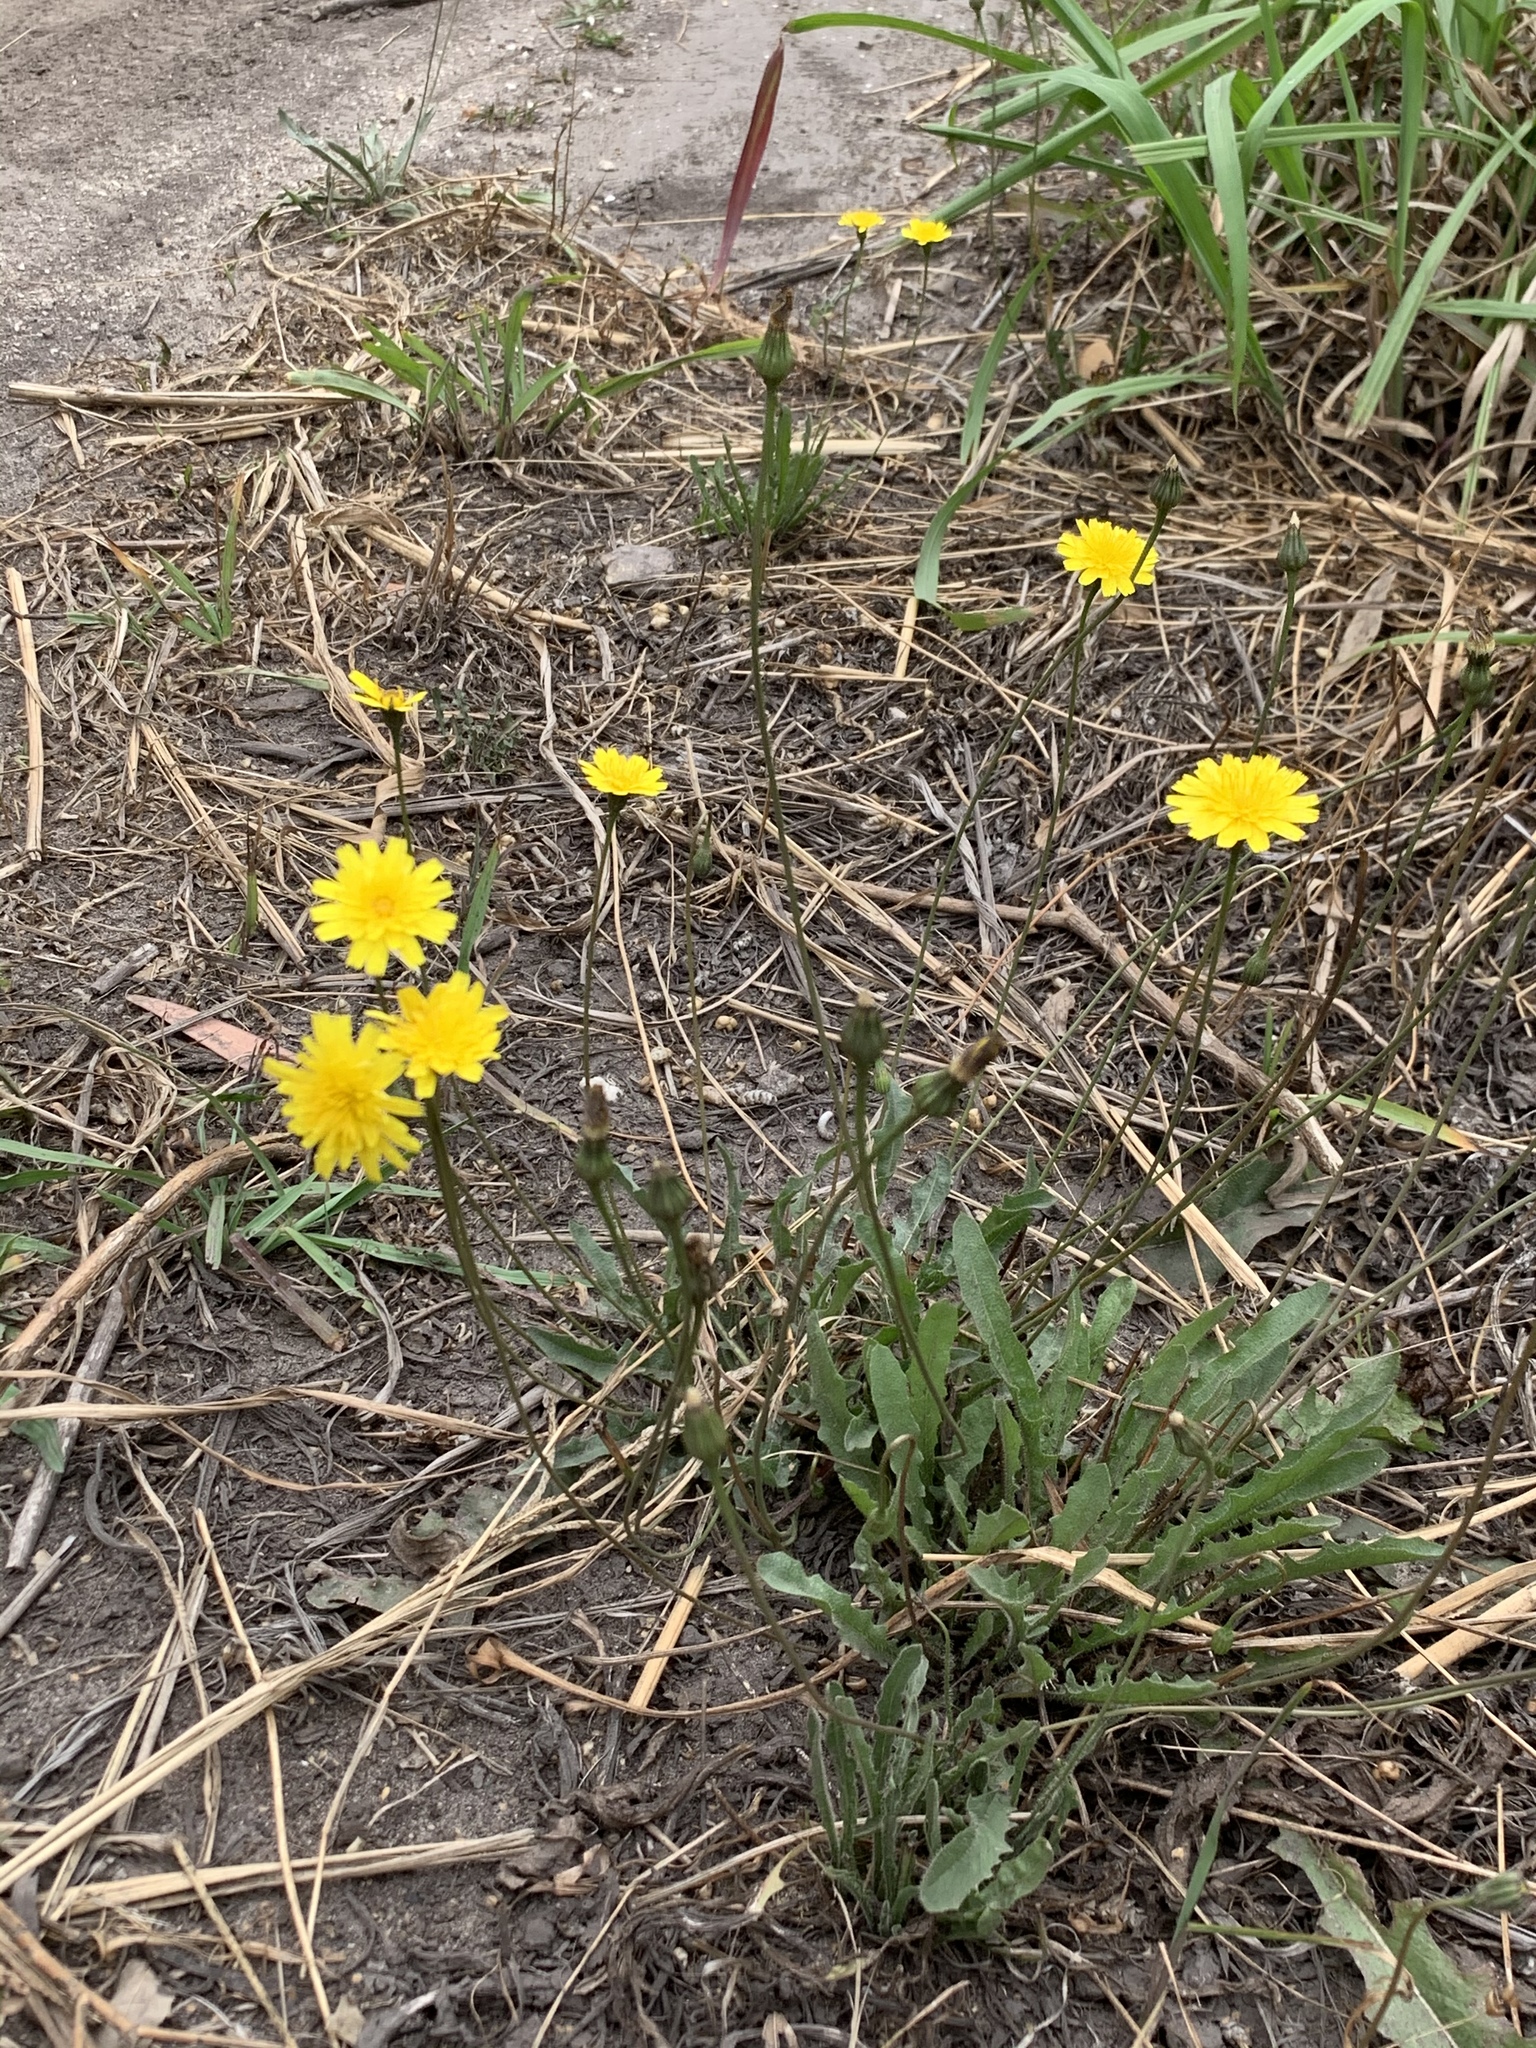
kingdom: Plantae
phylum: Tracheophyta
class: Magnoliopsida
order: Asterales
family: Asteraceae
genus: Hypochaeris
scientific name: Hypochaeris radicata
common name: Flatweed
